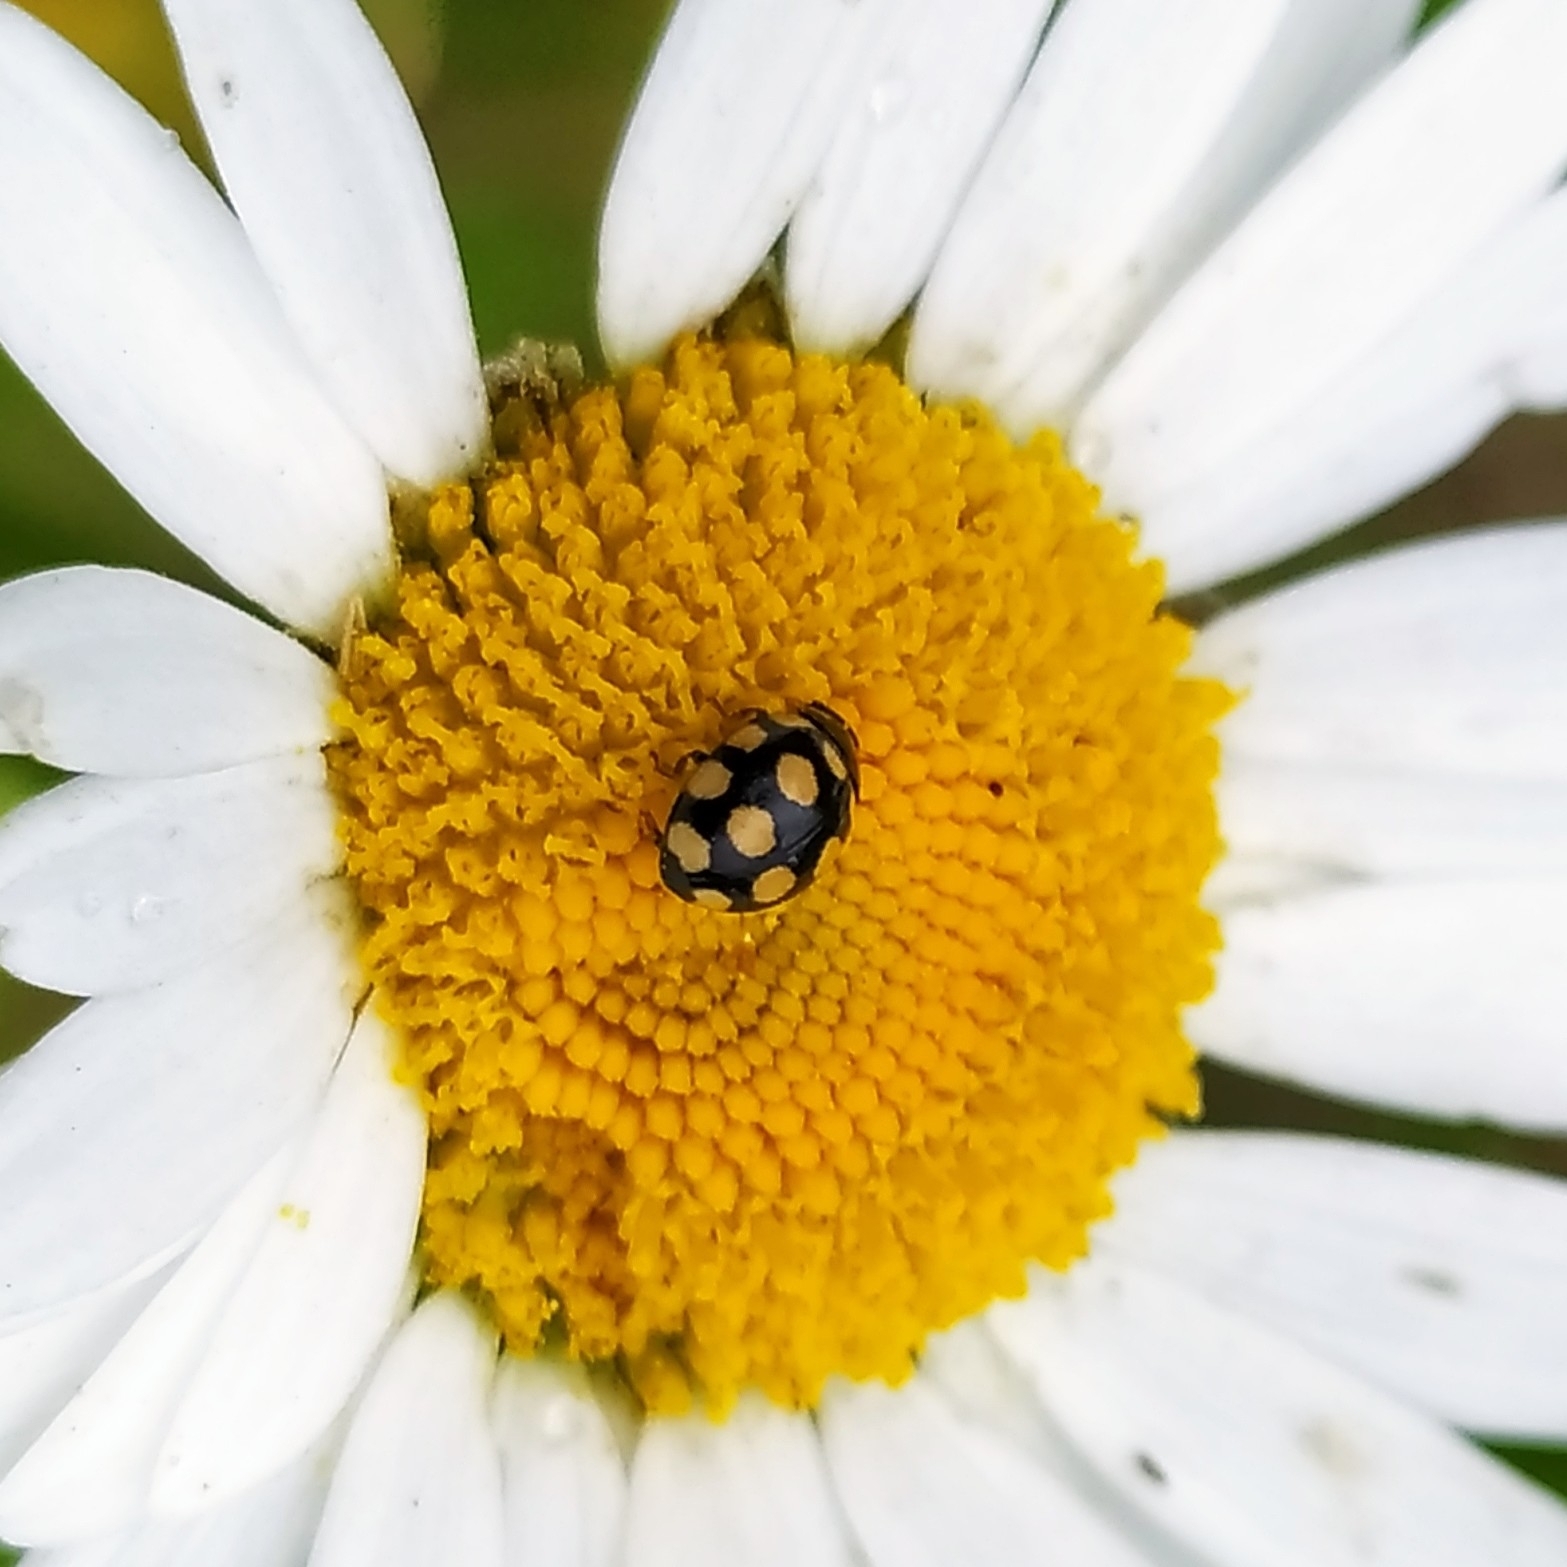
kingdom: Animalia
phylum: Arthropoda
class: Insecta
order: Coleoptera
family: Coccinellidae
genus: Coccinula
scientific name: Coccinula quatuordecimpustulata
